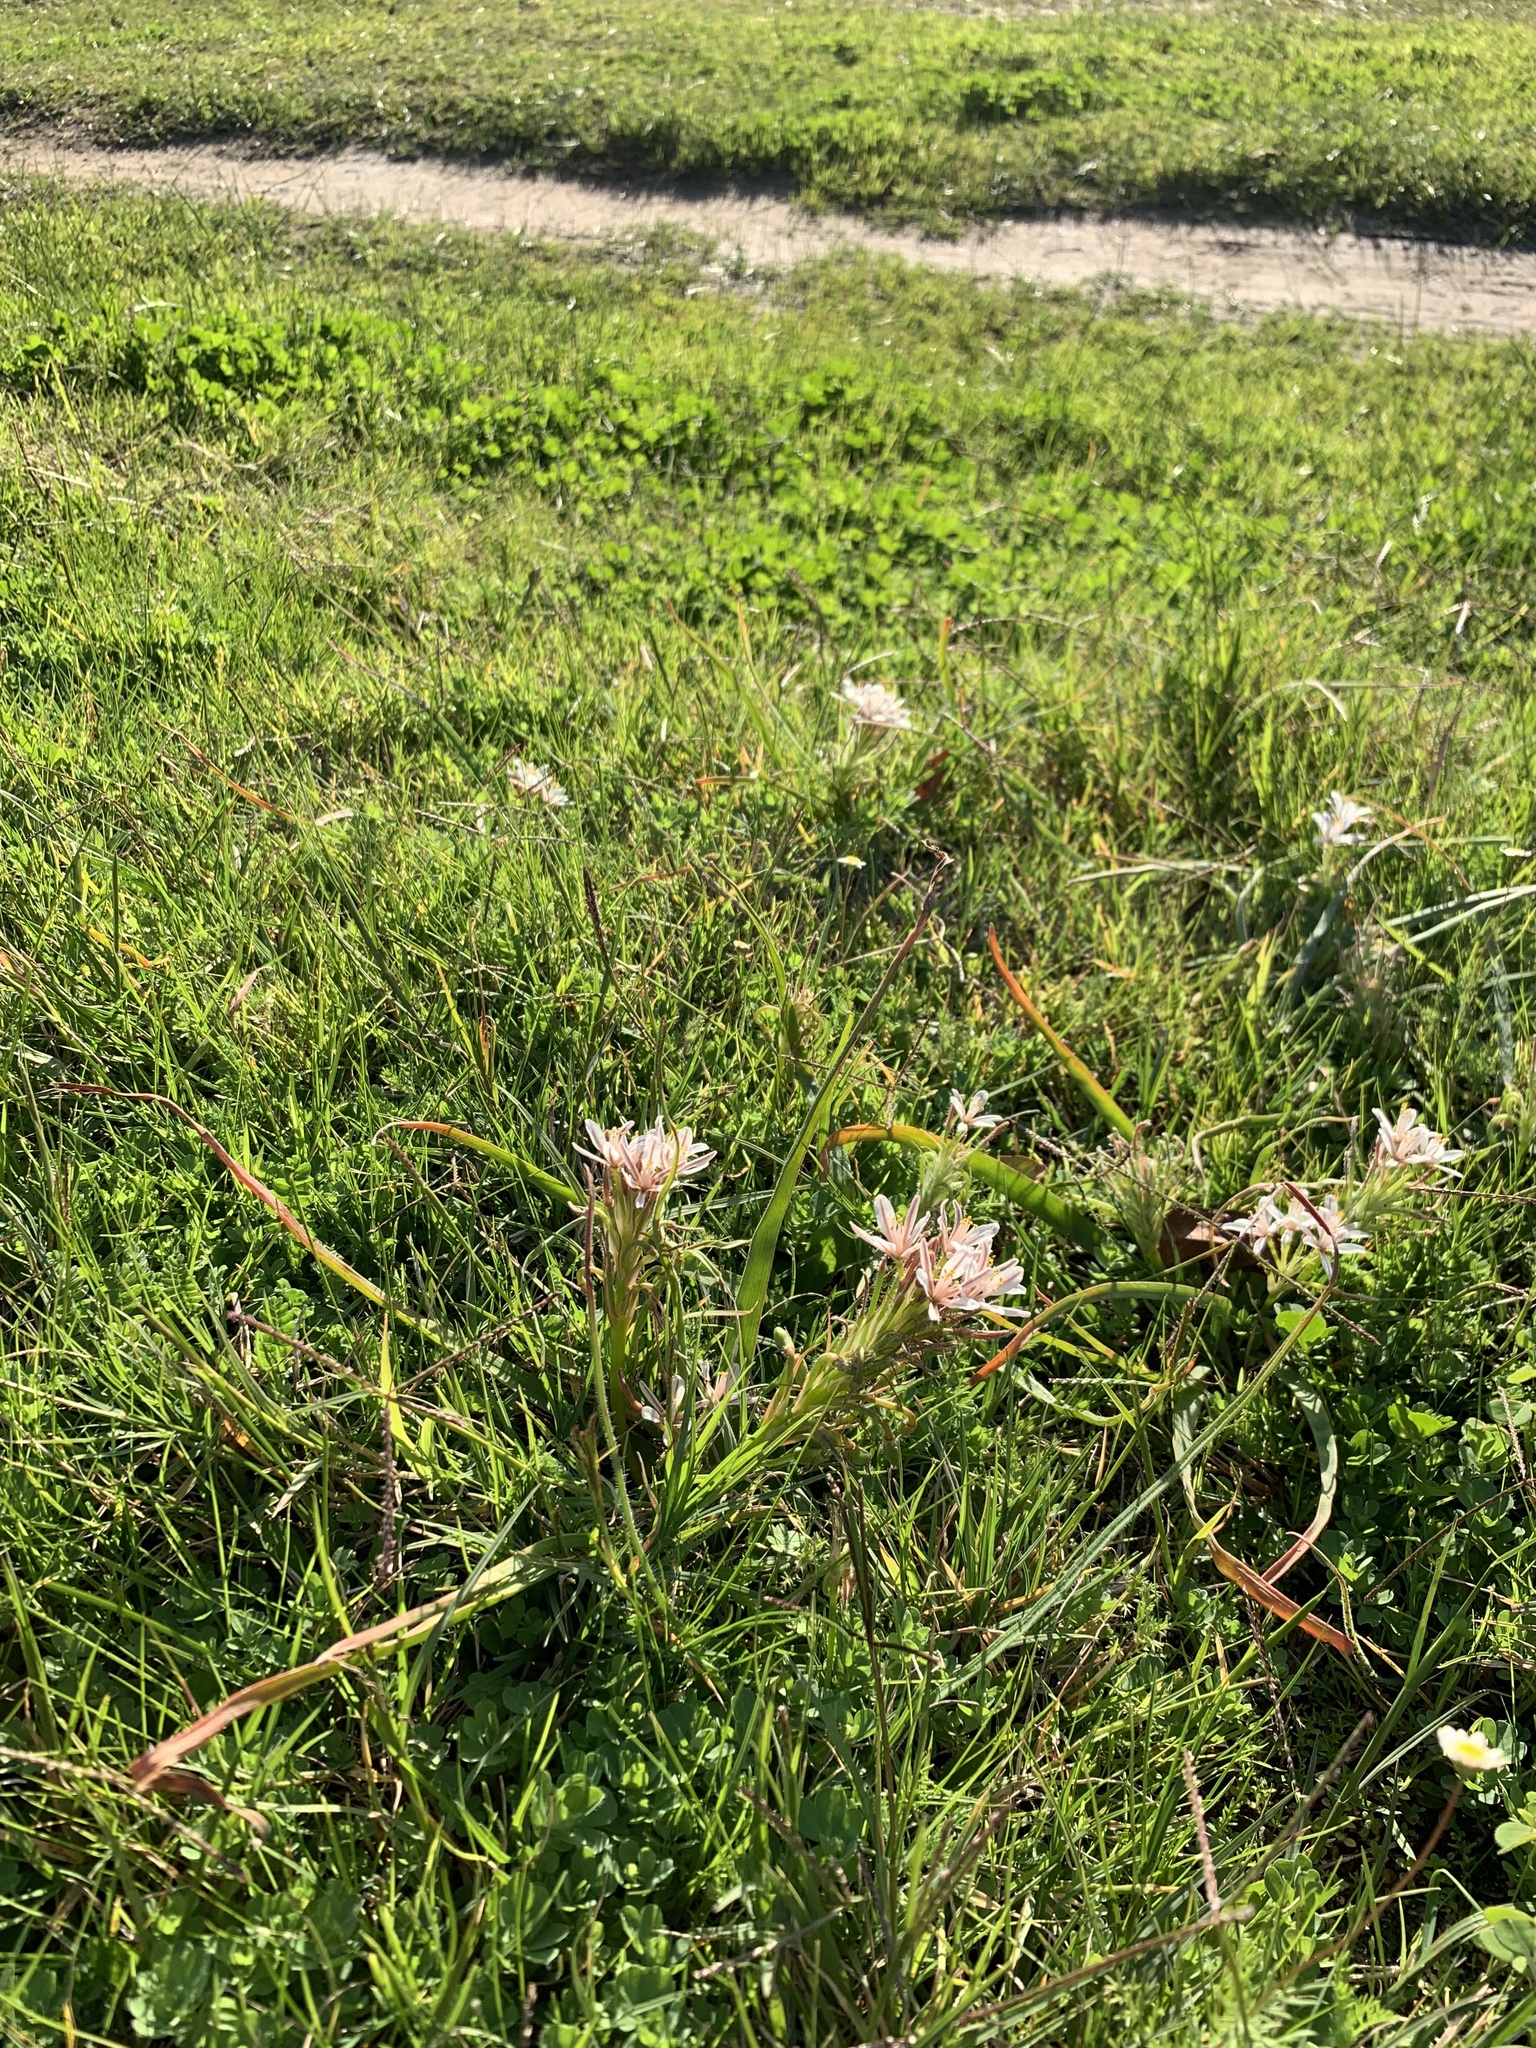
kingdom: Plantae
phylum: Tracheophyta
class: Liliopsida
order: Asparagales
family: Asphodelaceae
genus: Trachyandra
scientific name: Trachyandra hispida
